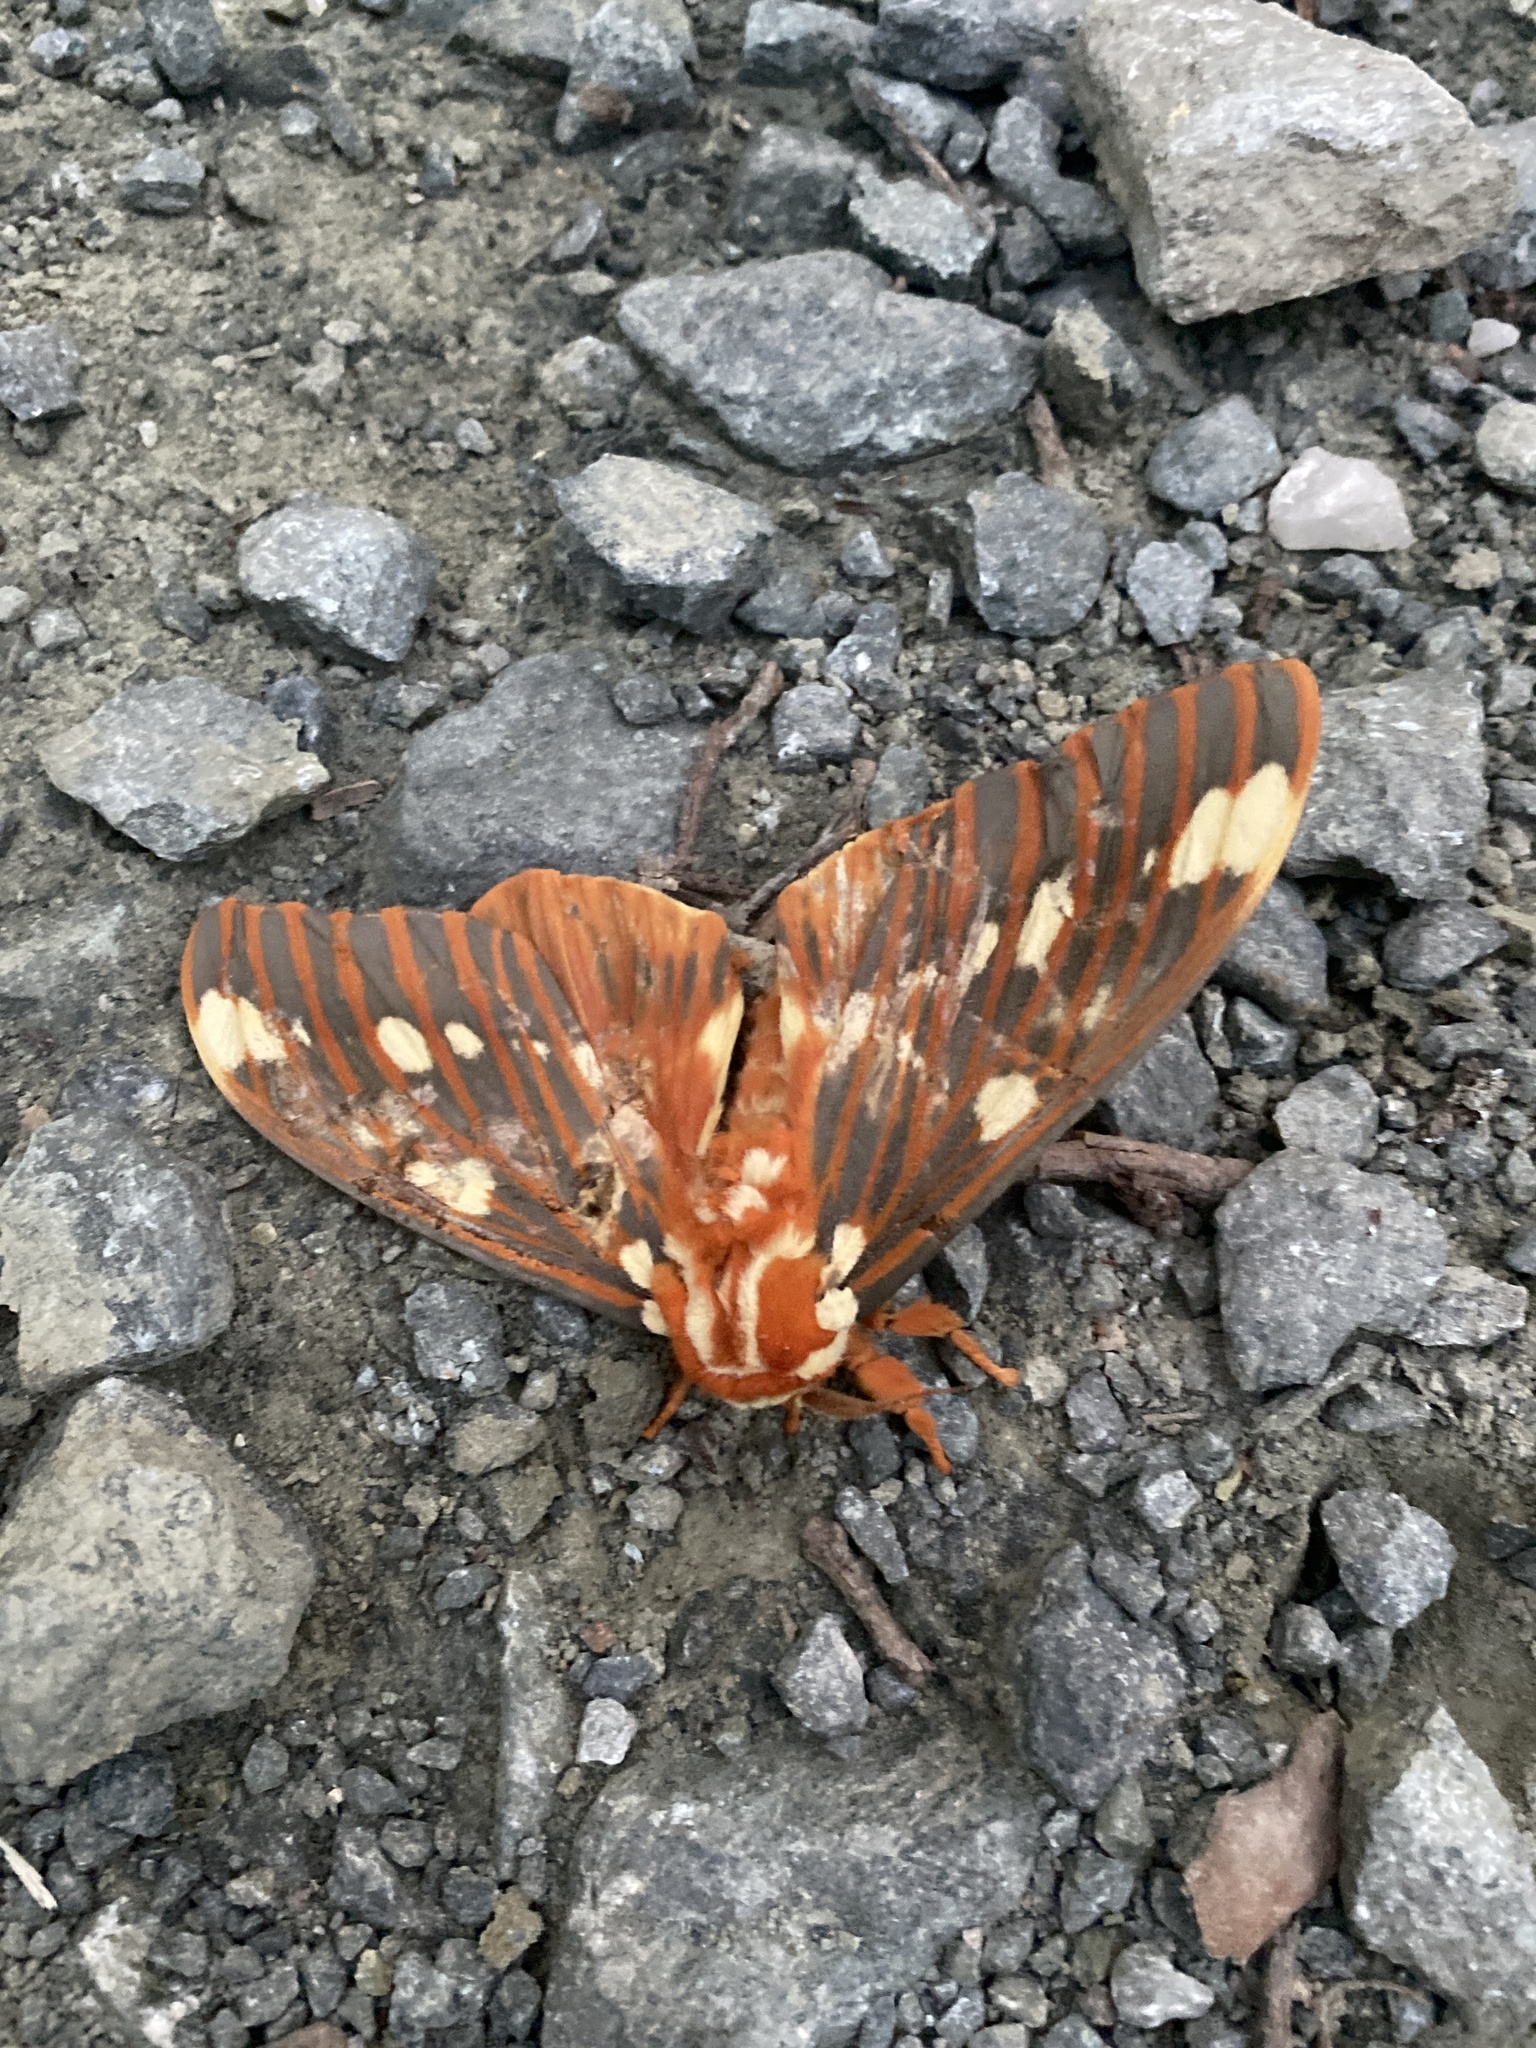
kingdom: Animalia
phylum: Arthropoda
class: Insecta
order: Lepidoptera
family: Saturniidae
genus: Citheronia
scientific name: Citheronia regalis
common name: Hickory horned devil
